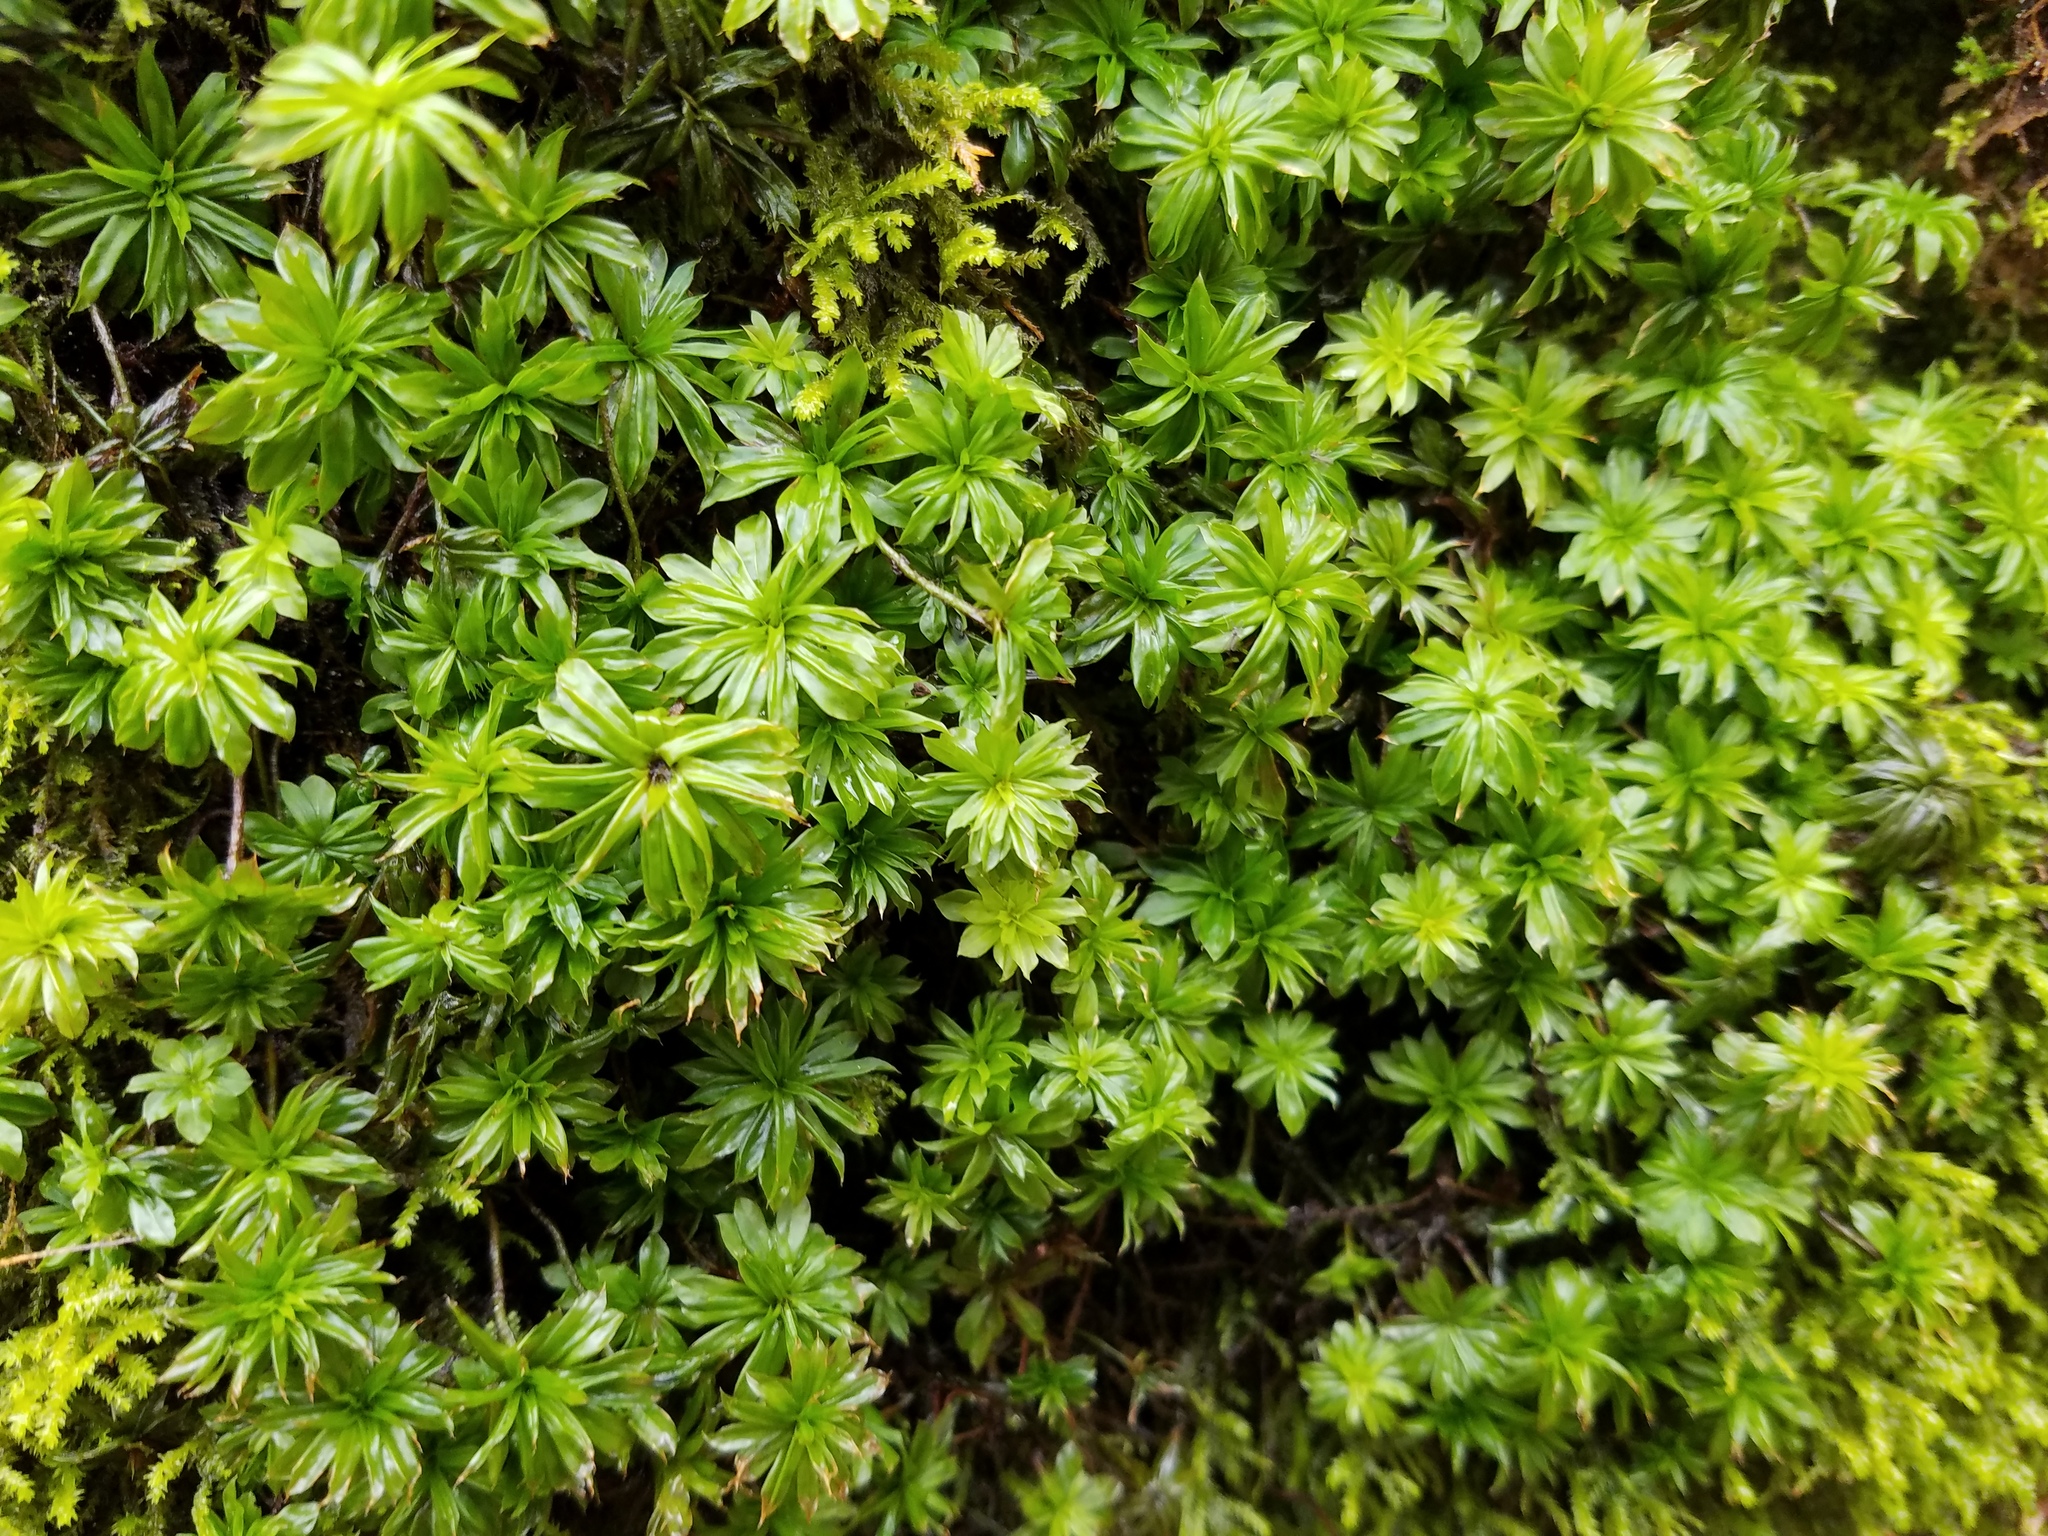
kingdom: Plantae
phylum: Bryophyta
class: Bryopsida
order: Bryales
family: Bryaceae
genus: Rhodobryum
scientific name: Rhodobryum ontariense
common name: Ontario rhodobryum moss
